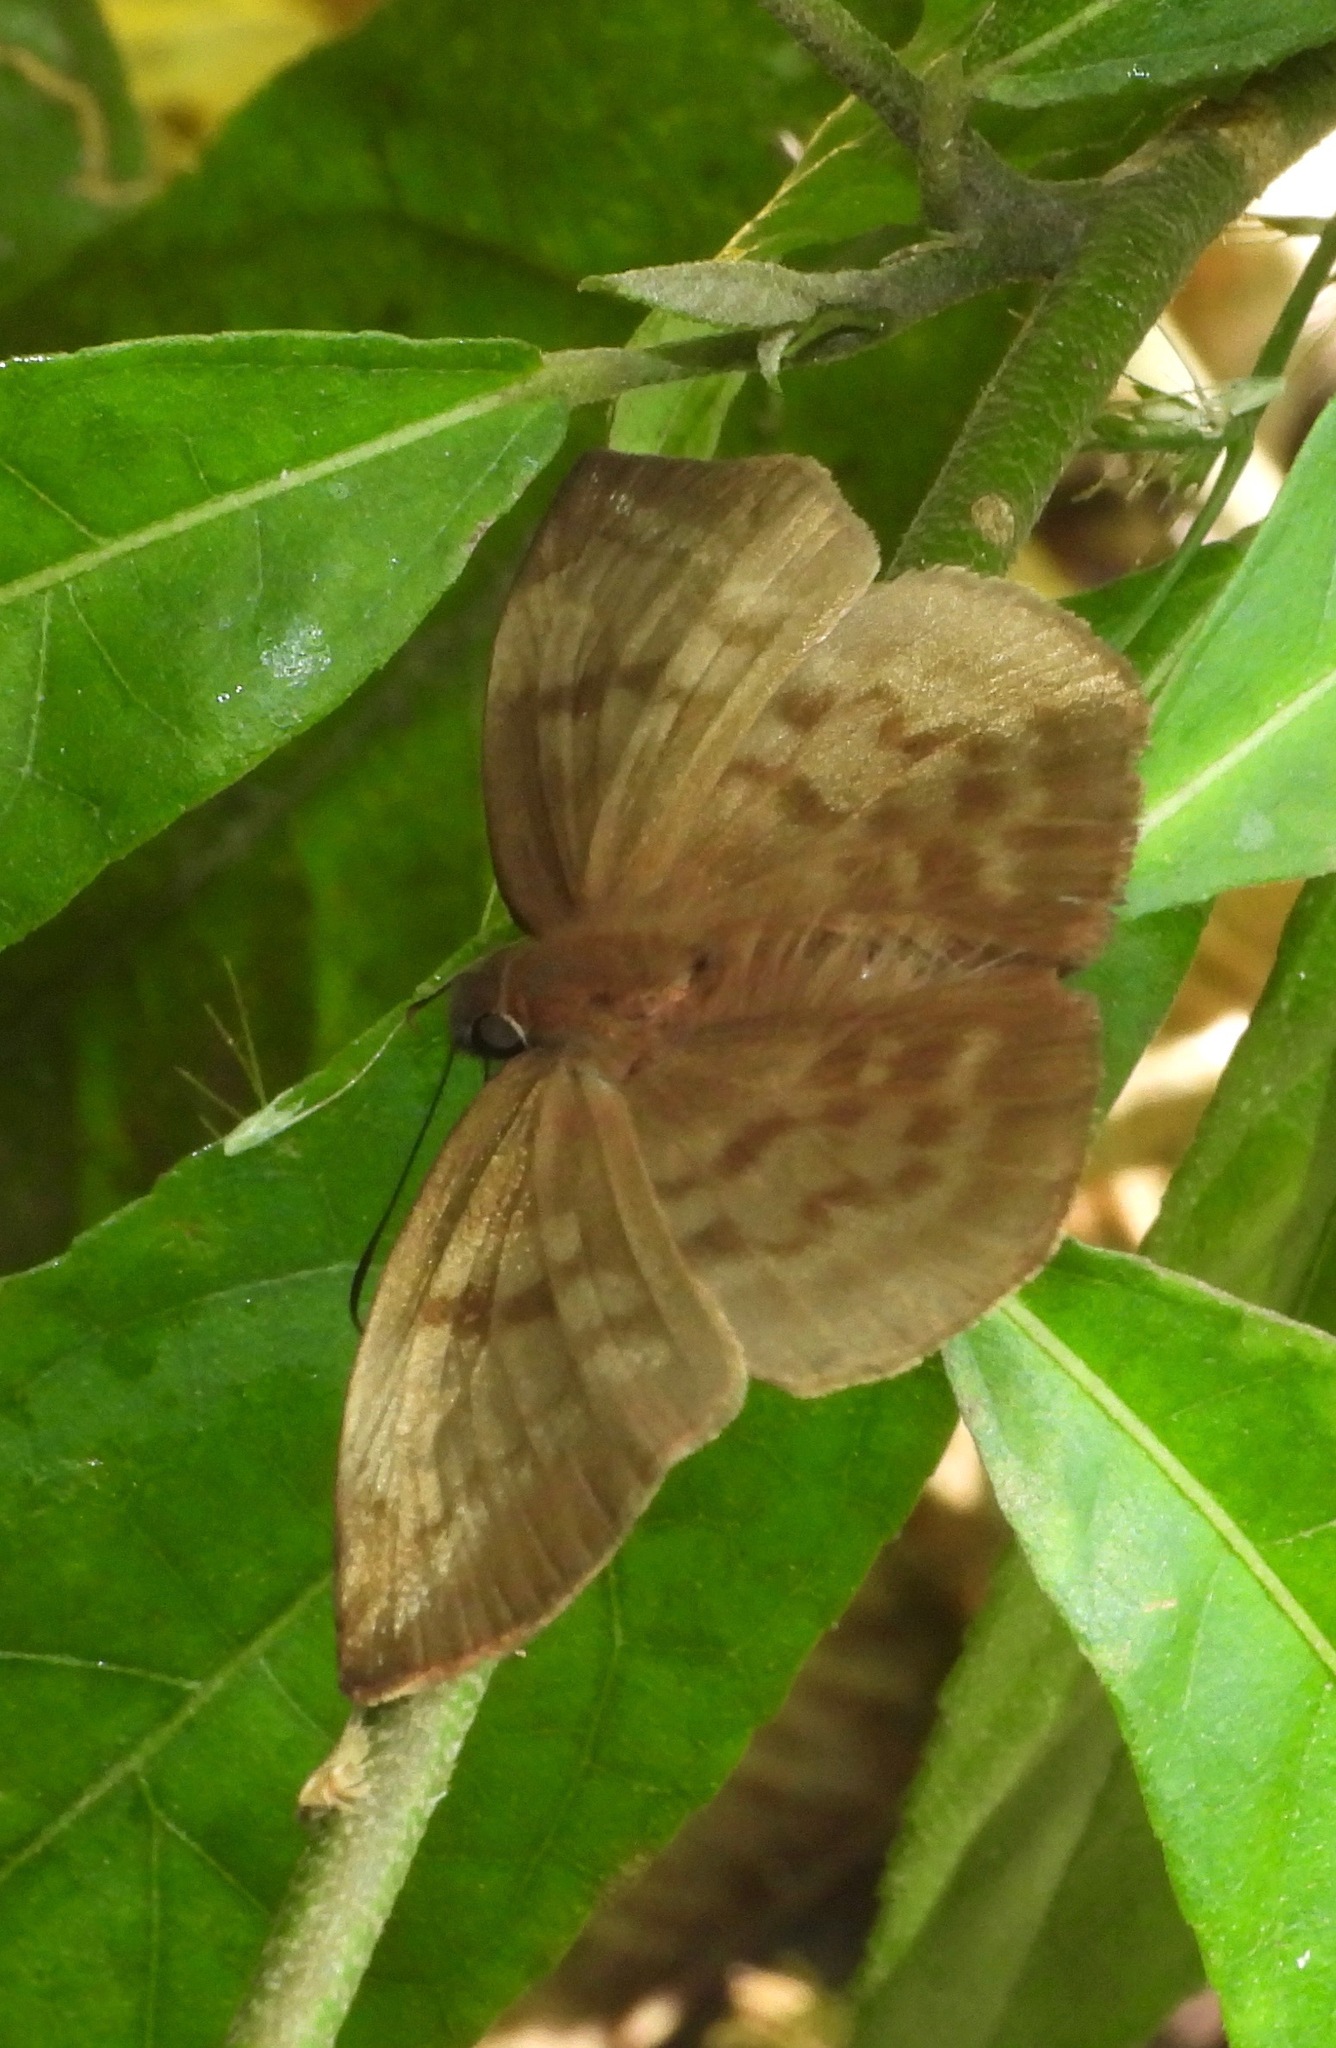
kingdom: Animalia
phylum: Arthropoda
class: Insecta
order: Lepidoptera
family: Hesperiidae
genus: Achlyodes
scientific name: Achlyodes pallida
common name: Pale sicklewing
